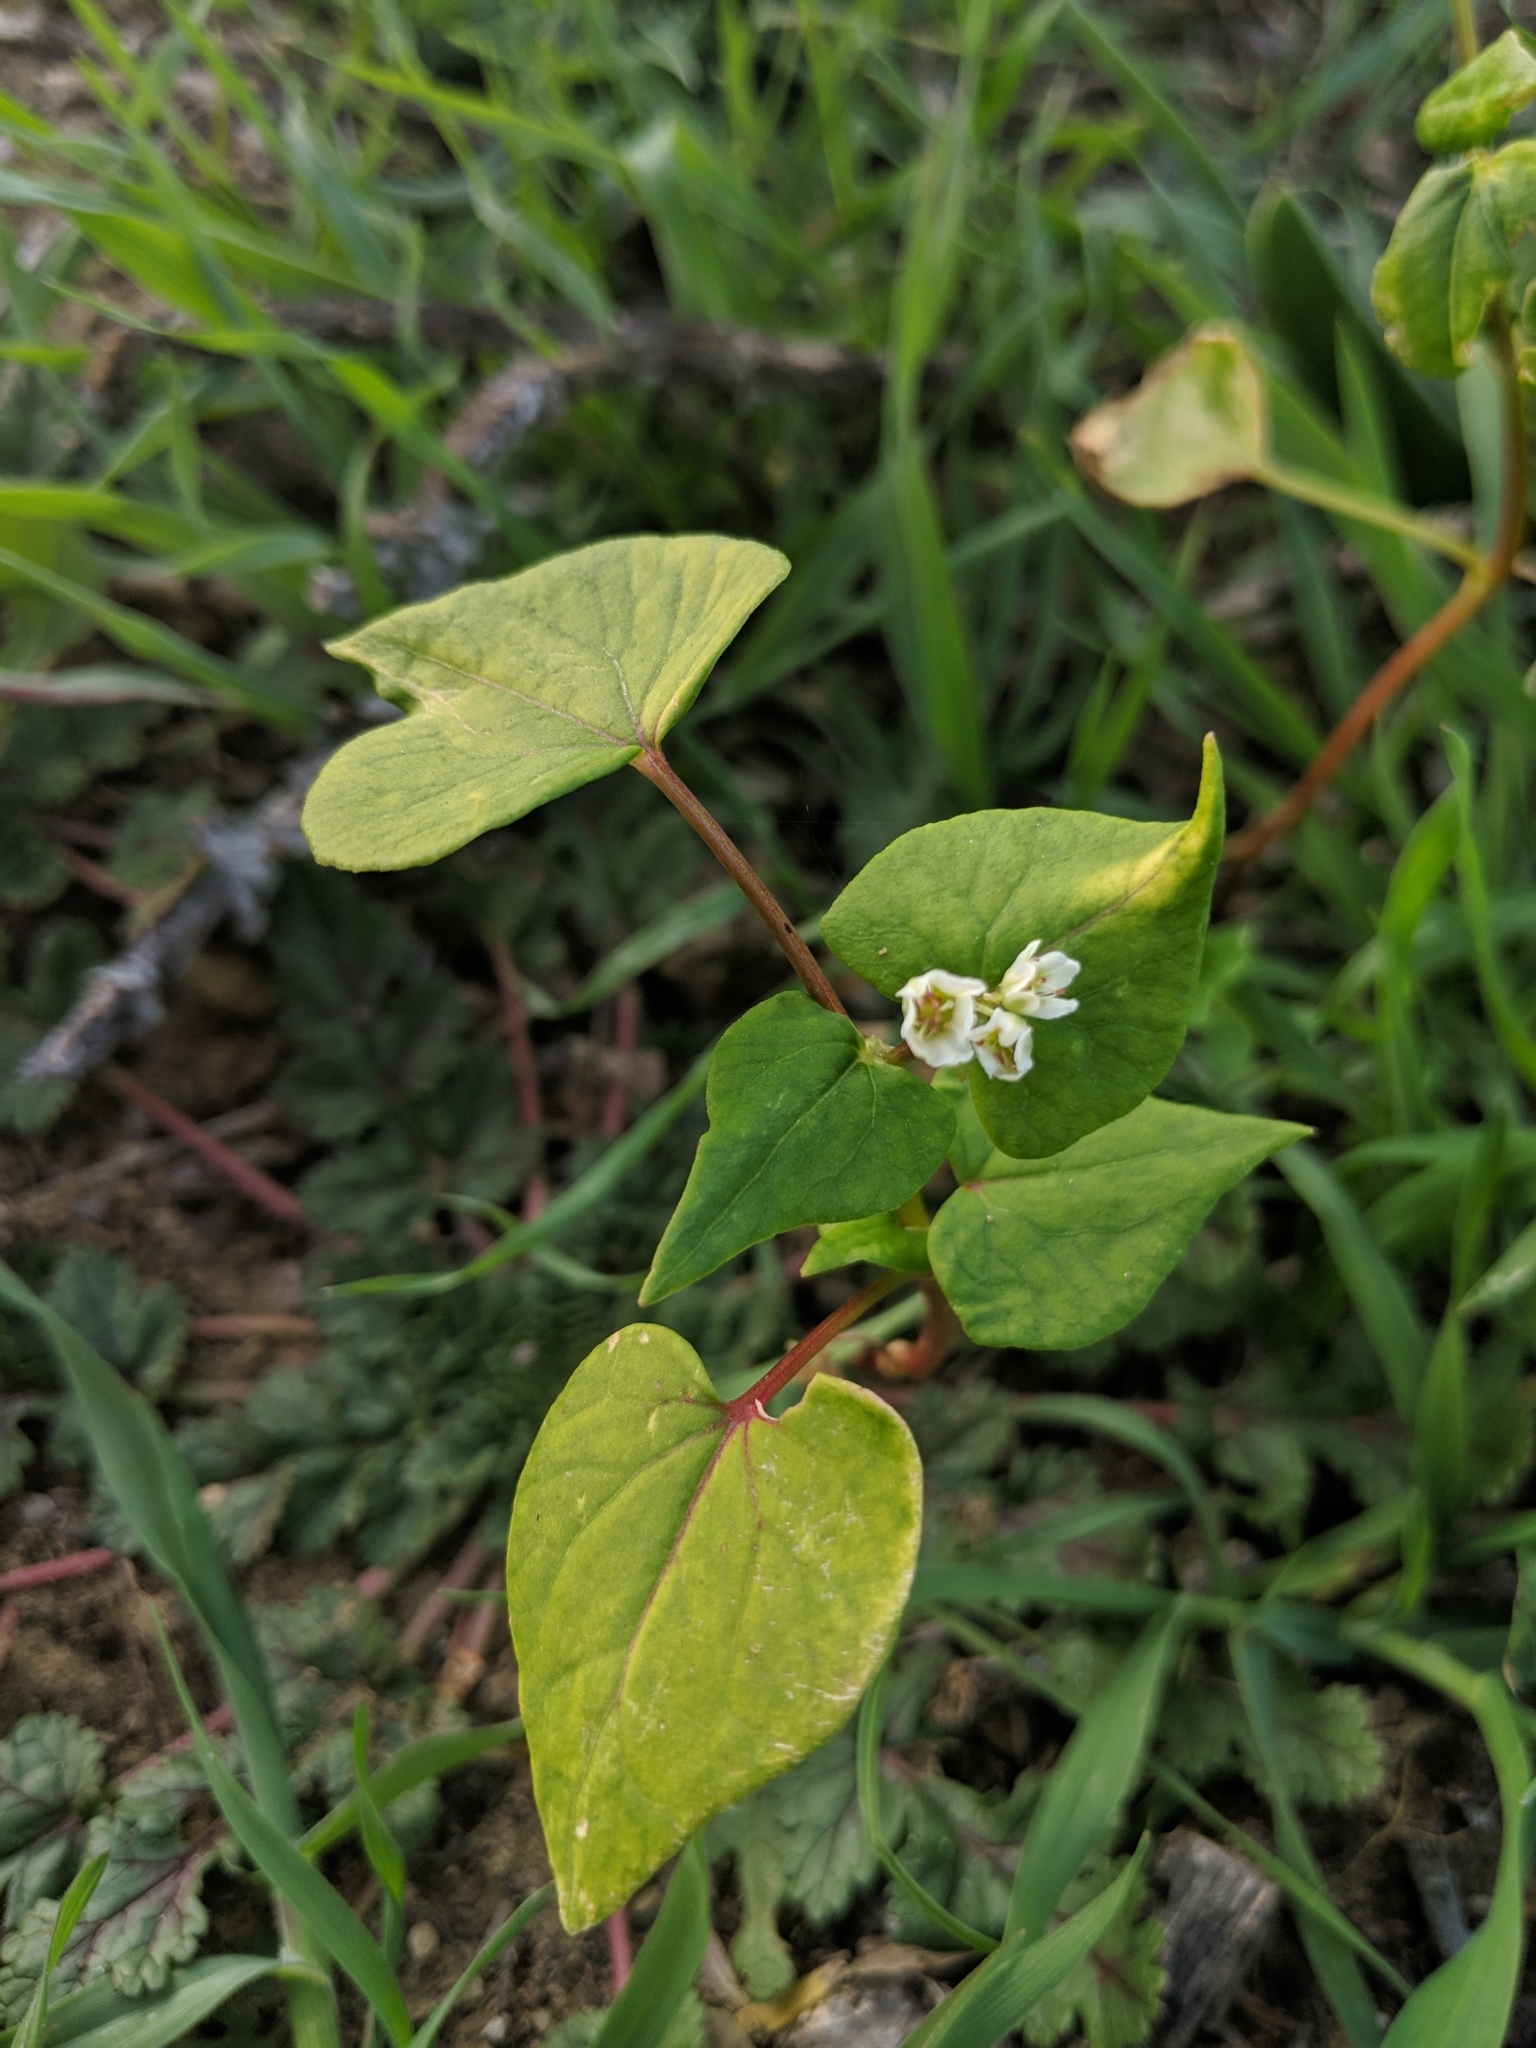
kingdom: Plantae
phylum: Tracheophyta
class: Magnoliopsida
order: Caryophyllales
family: Montiaceae
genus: Claytonia
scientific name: Claytonia perfoliata
